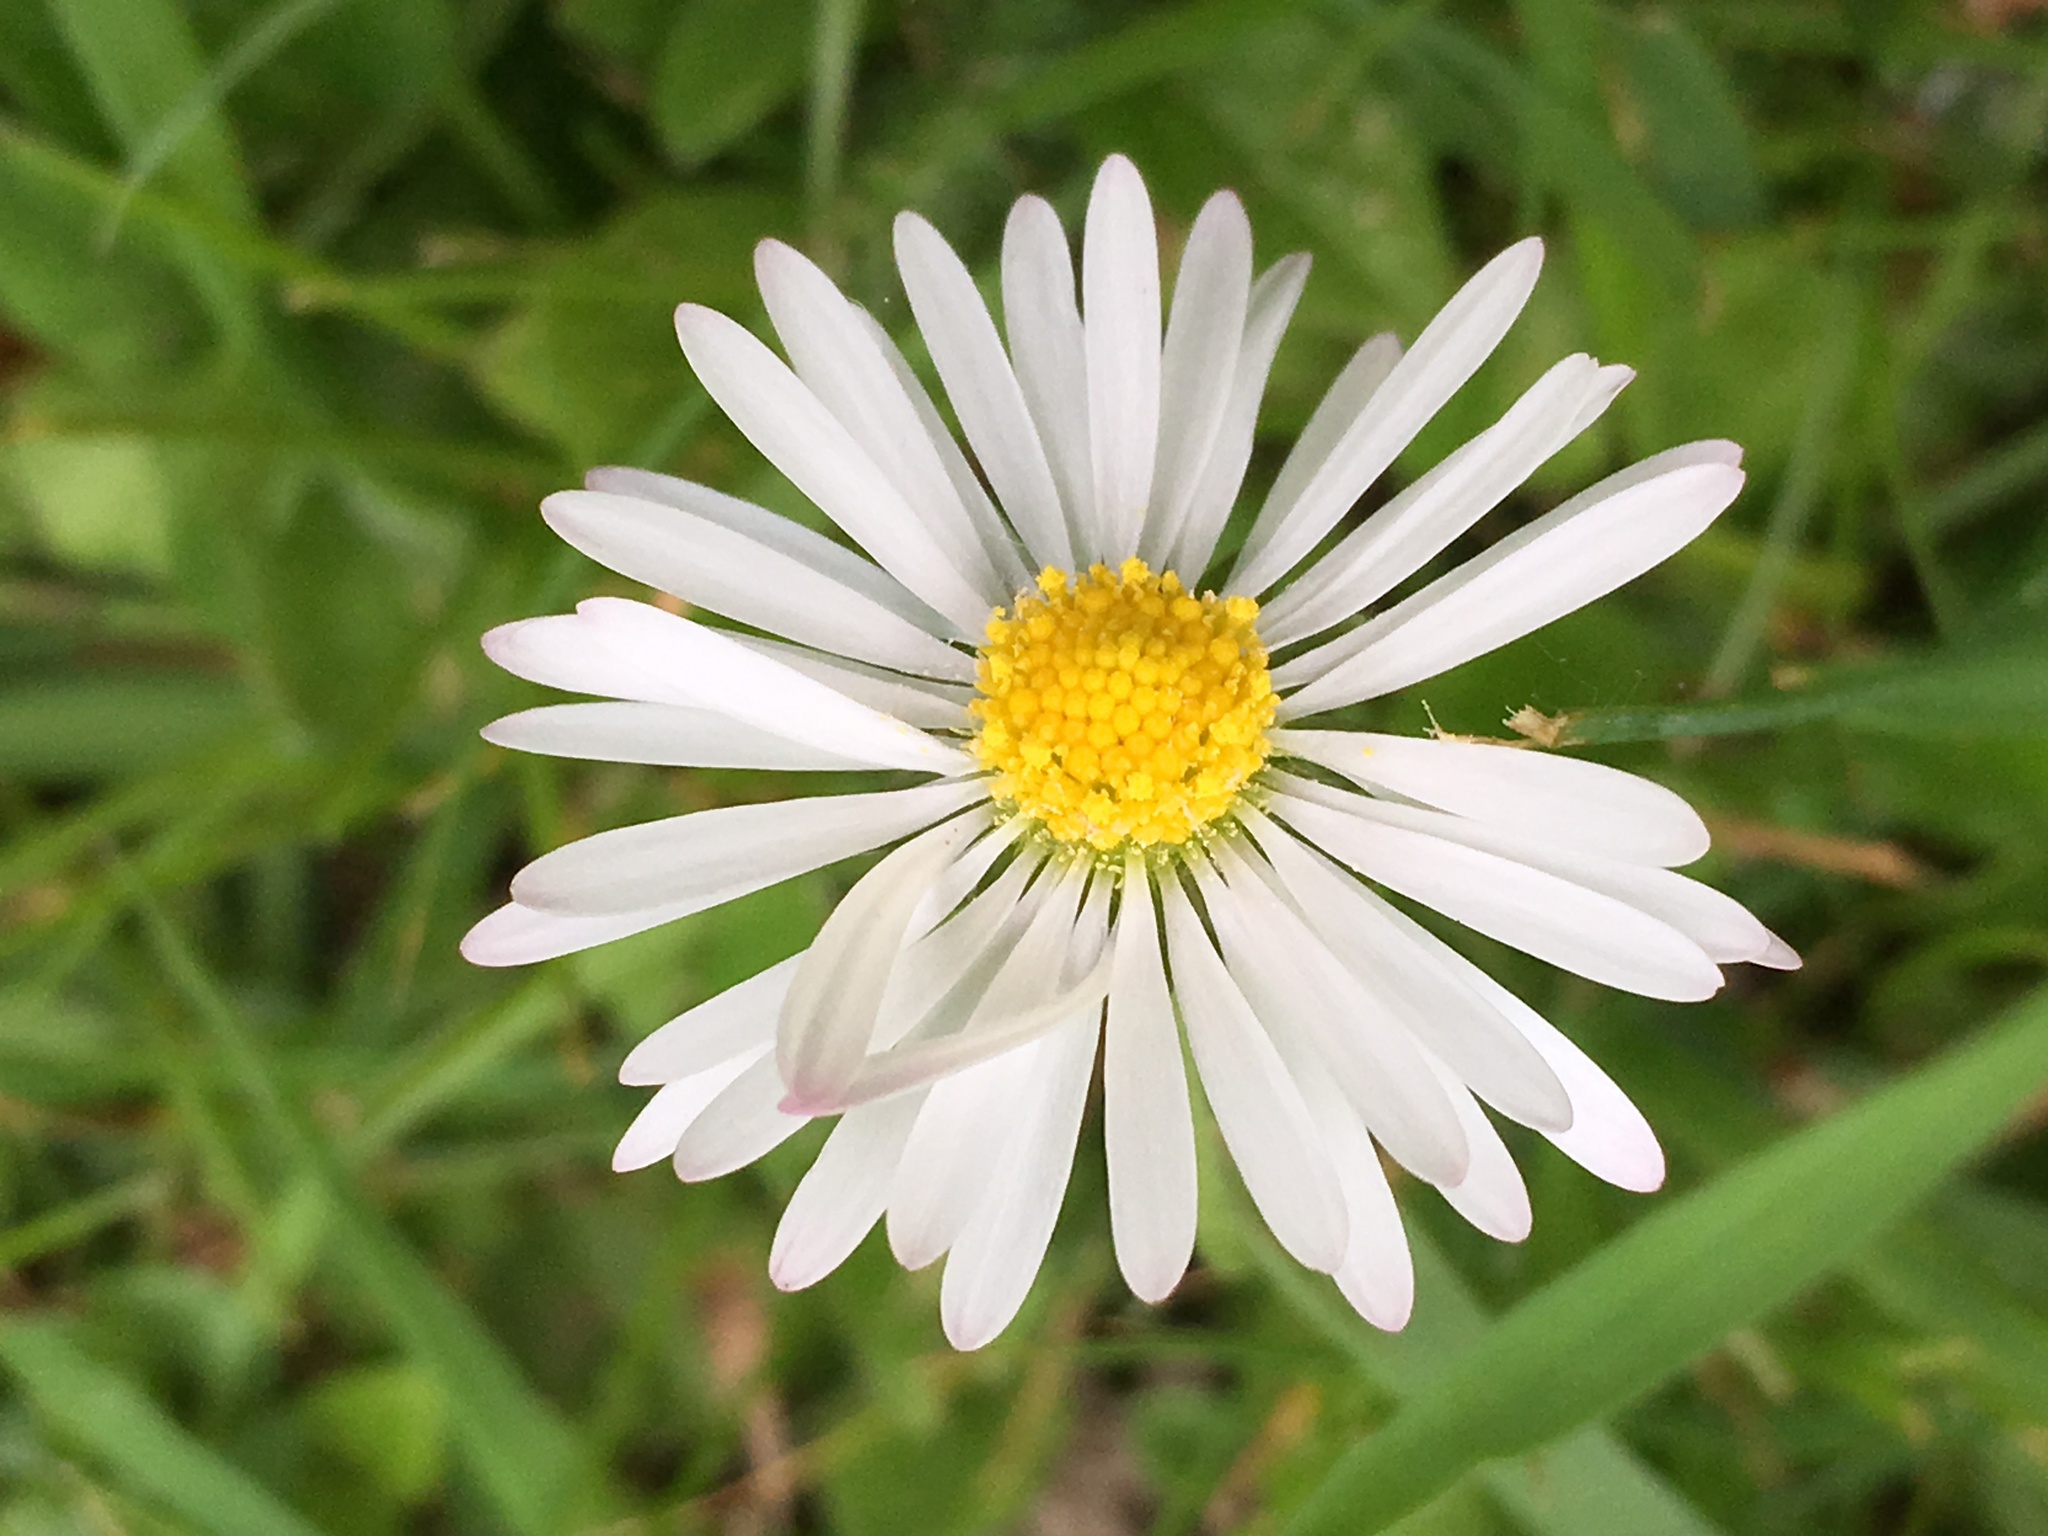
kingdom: Plantae
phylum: Tracheophyta
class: Magnoliopsida
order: Asterales
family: Asteraceae
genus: Bellis
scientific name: Bellis perennis
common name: Lawndaisy
